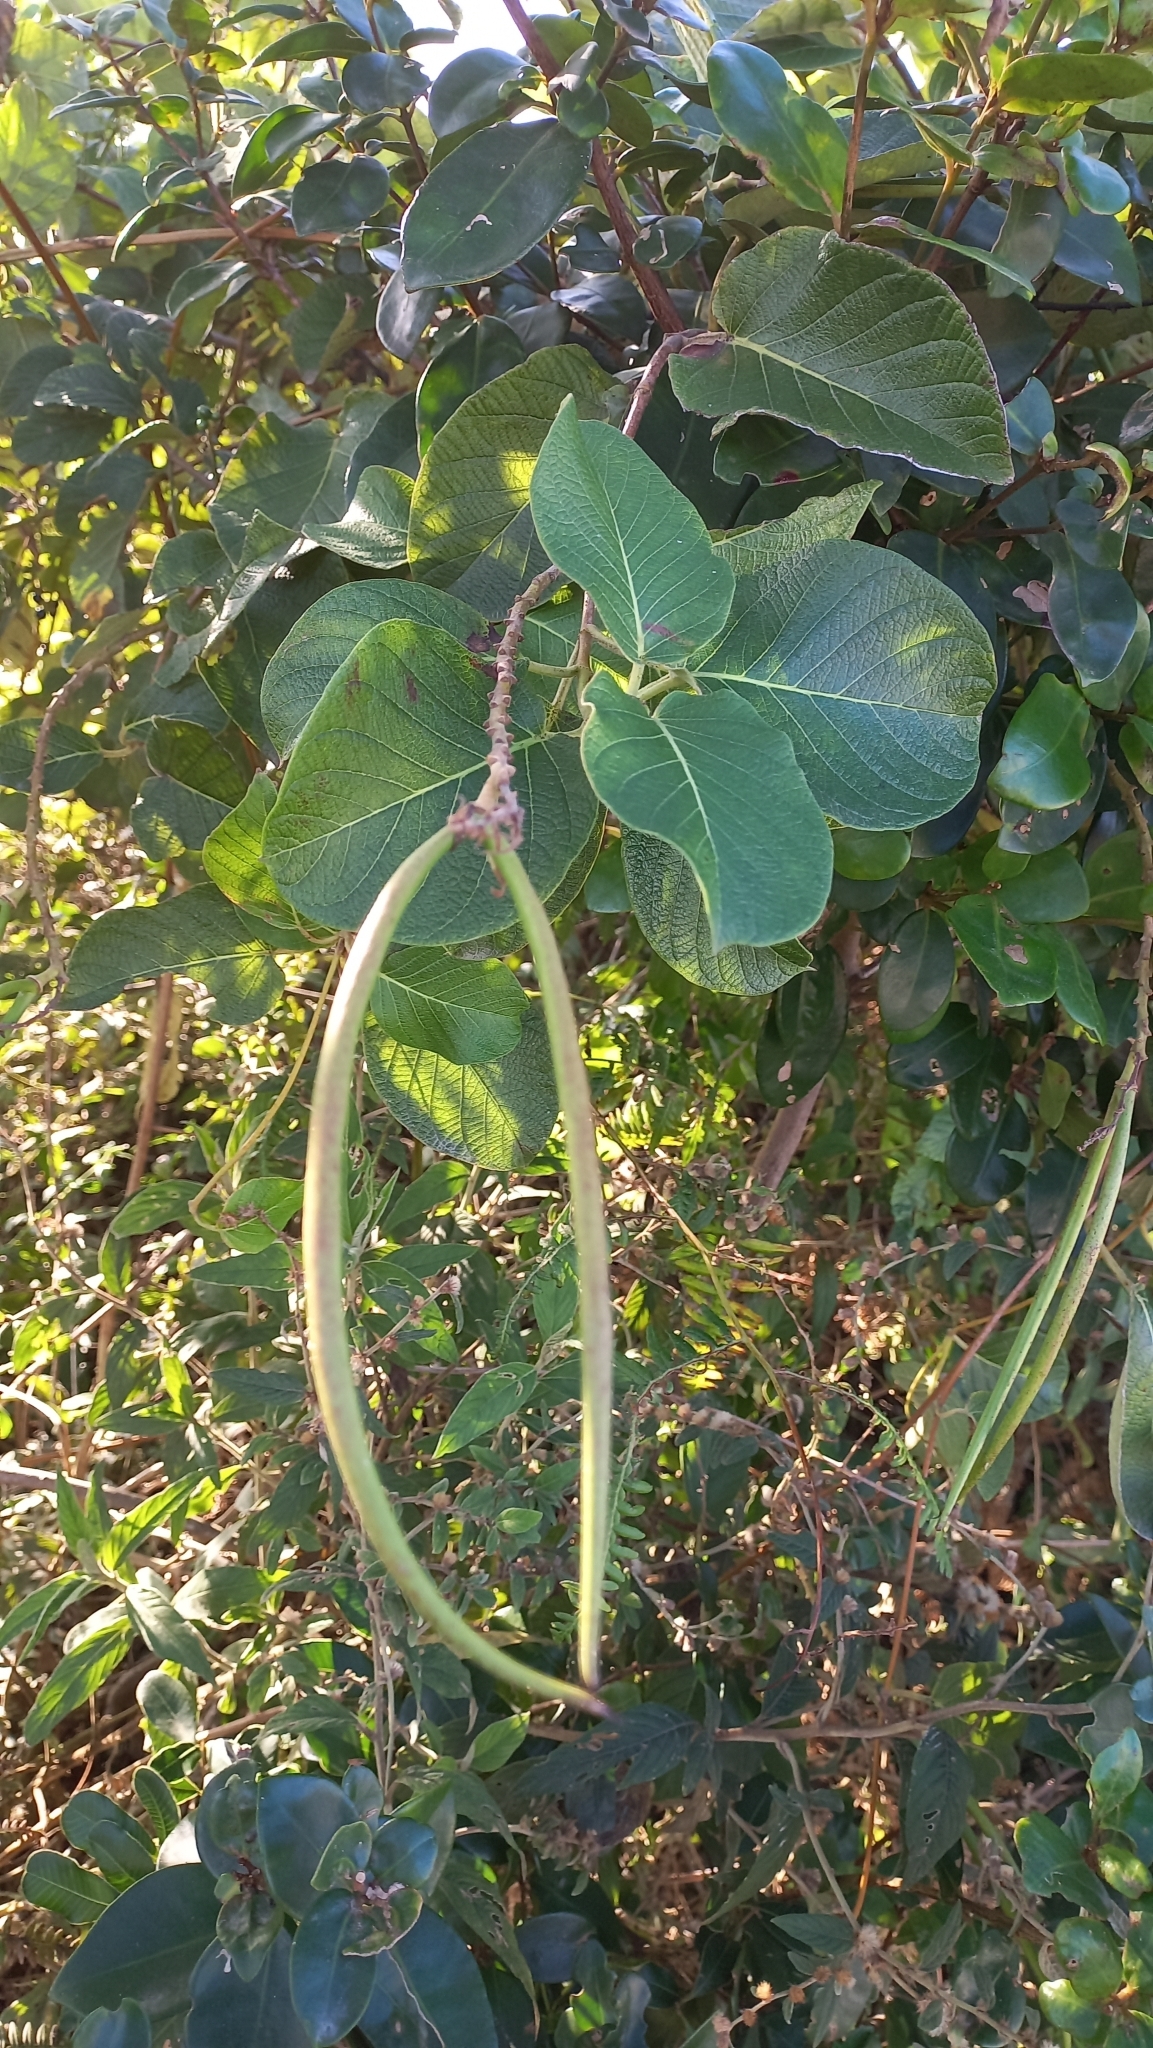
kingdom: Plantae
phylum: Tracheophyta
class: Magnoliopsida
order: Gentianales
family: Apocynaceae
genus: Mandevilla
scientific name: Mandevilla pentlandiana
